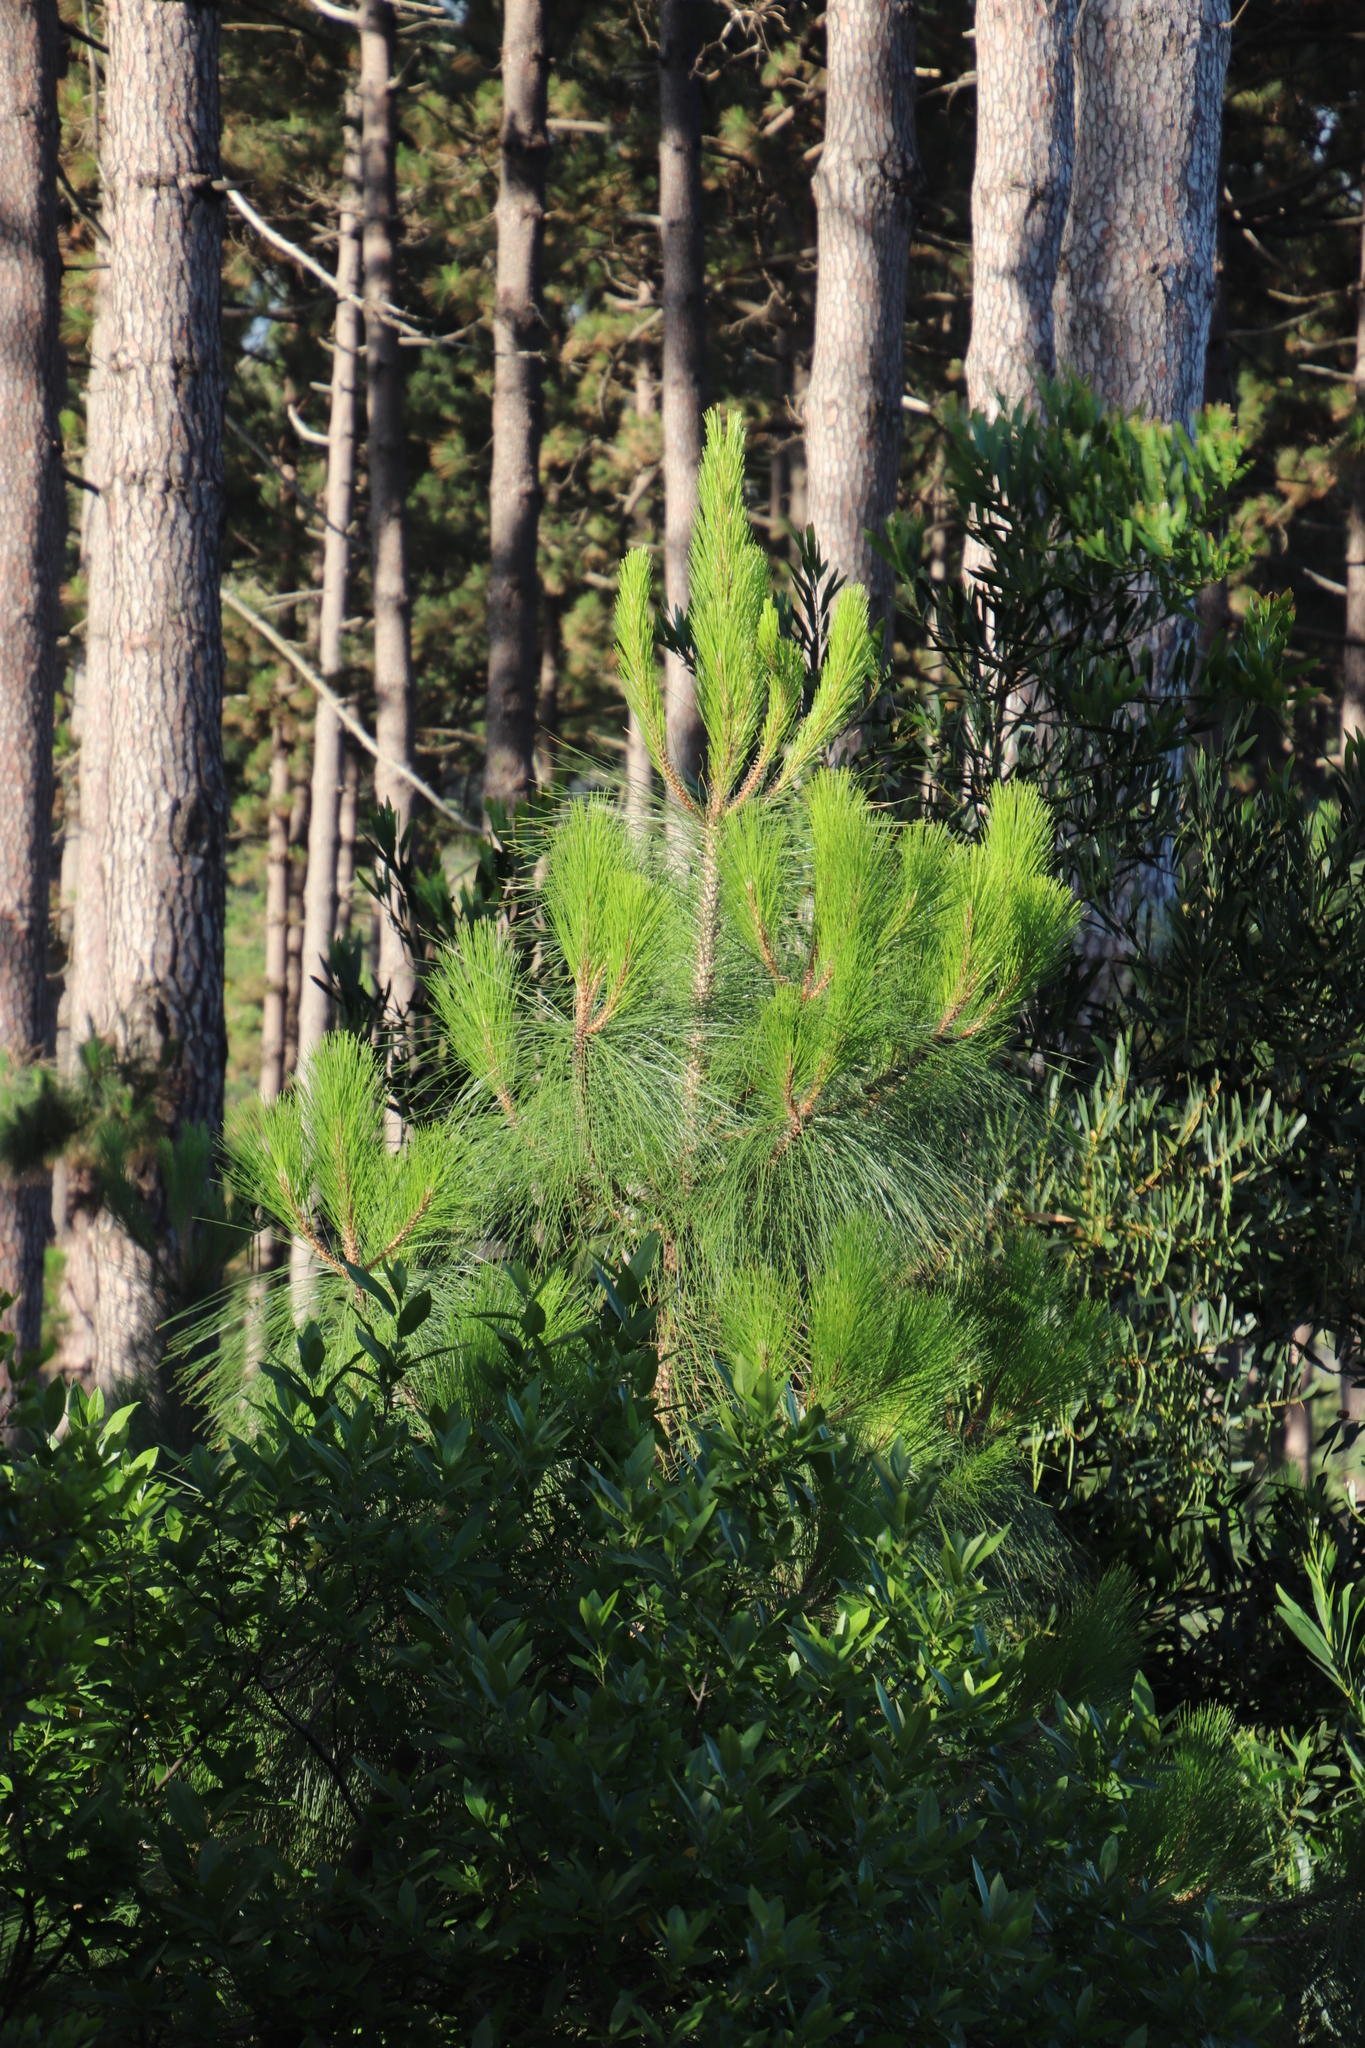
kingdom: Plantae
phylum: Tracheophyta
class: Pinopsida
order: Pinales
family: Pinaceae
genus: Pinus
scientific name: Pinus canariensis
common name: Canary islands pine
